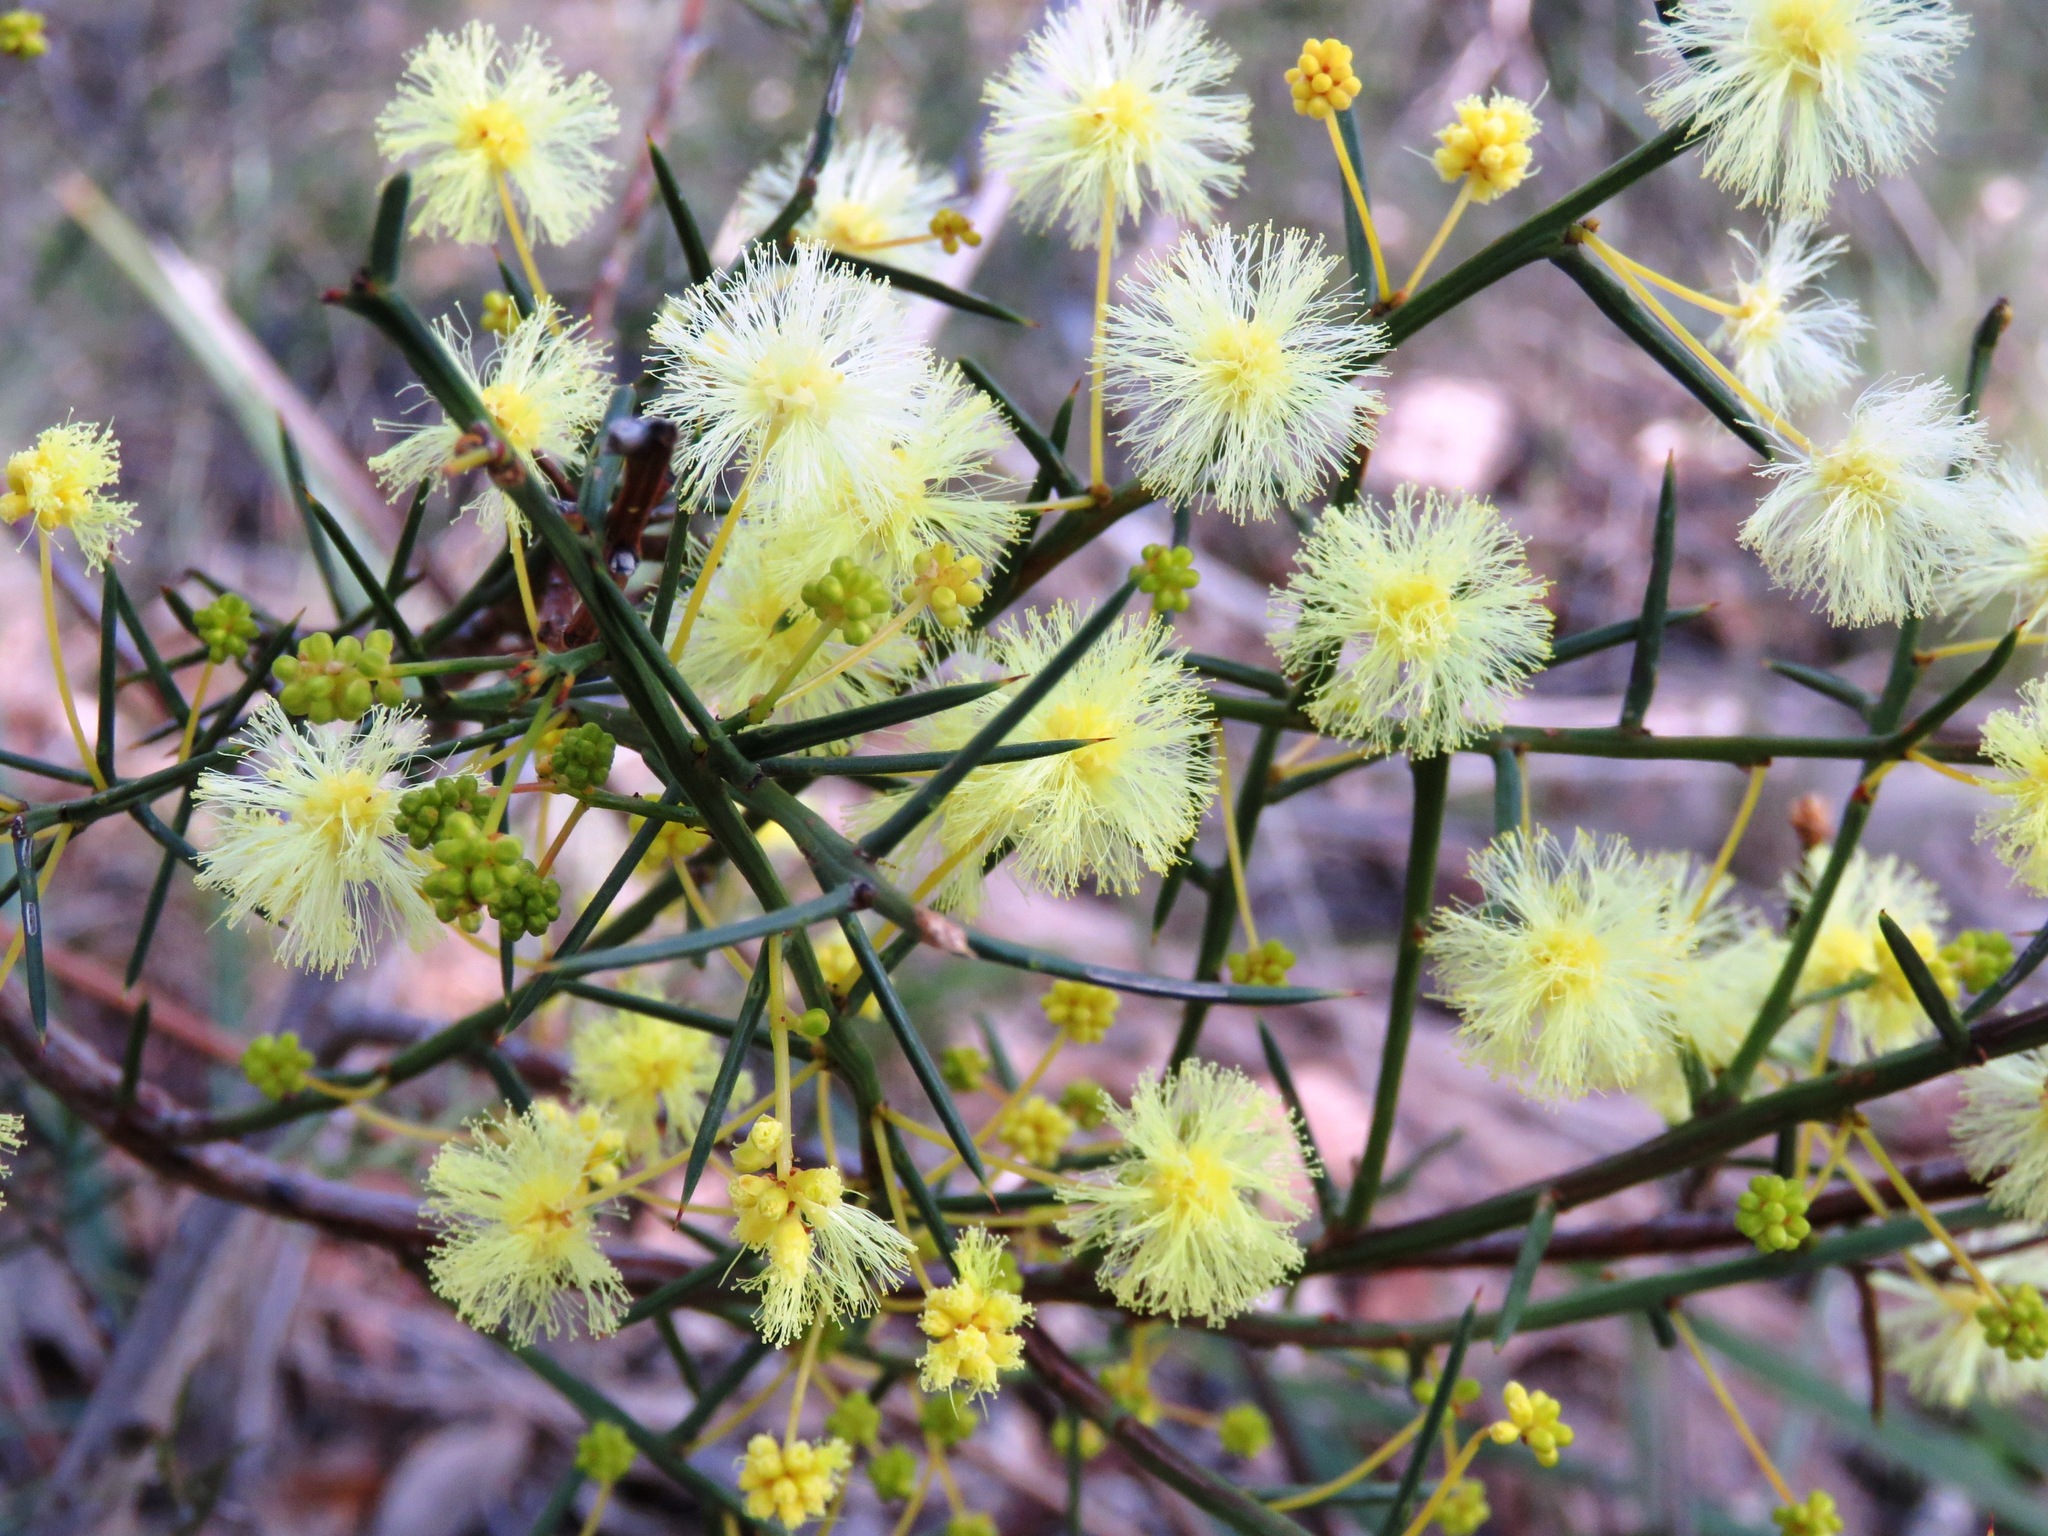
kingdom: Plantae
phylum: Tracheophyta
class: Magnoliopsida
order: Fabales
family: Fabaceae
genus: Acacia
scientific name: Acacia genistifolia
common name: Early wattle
